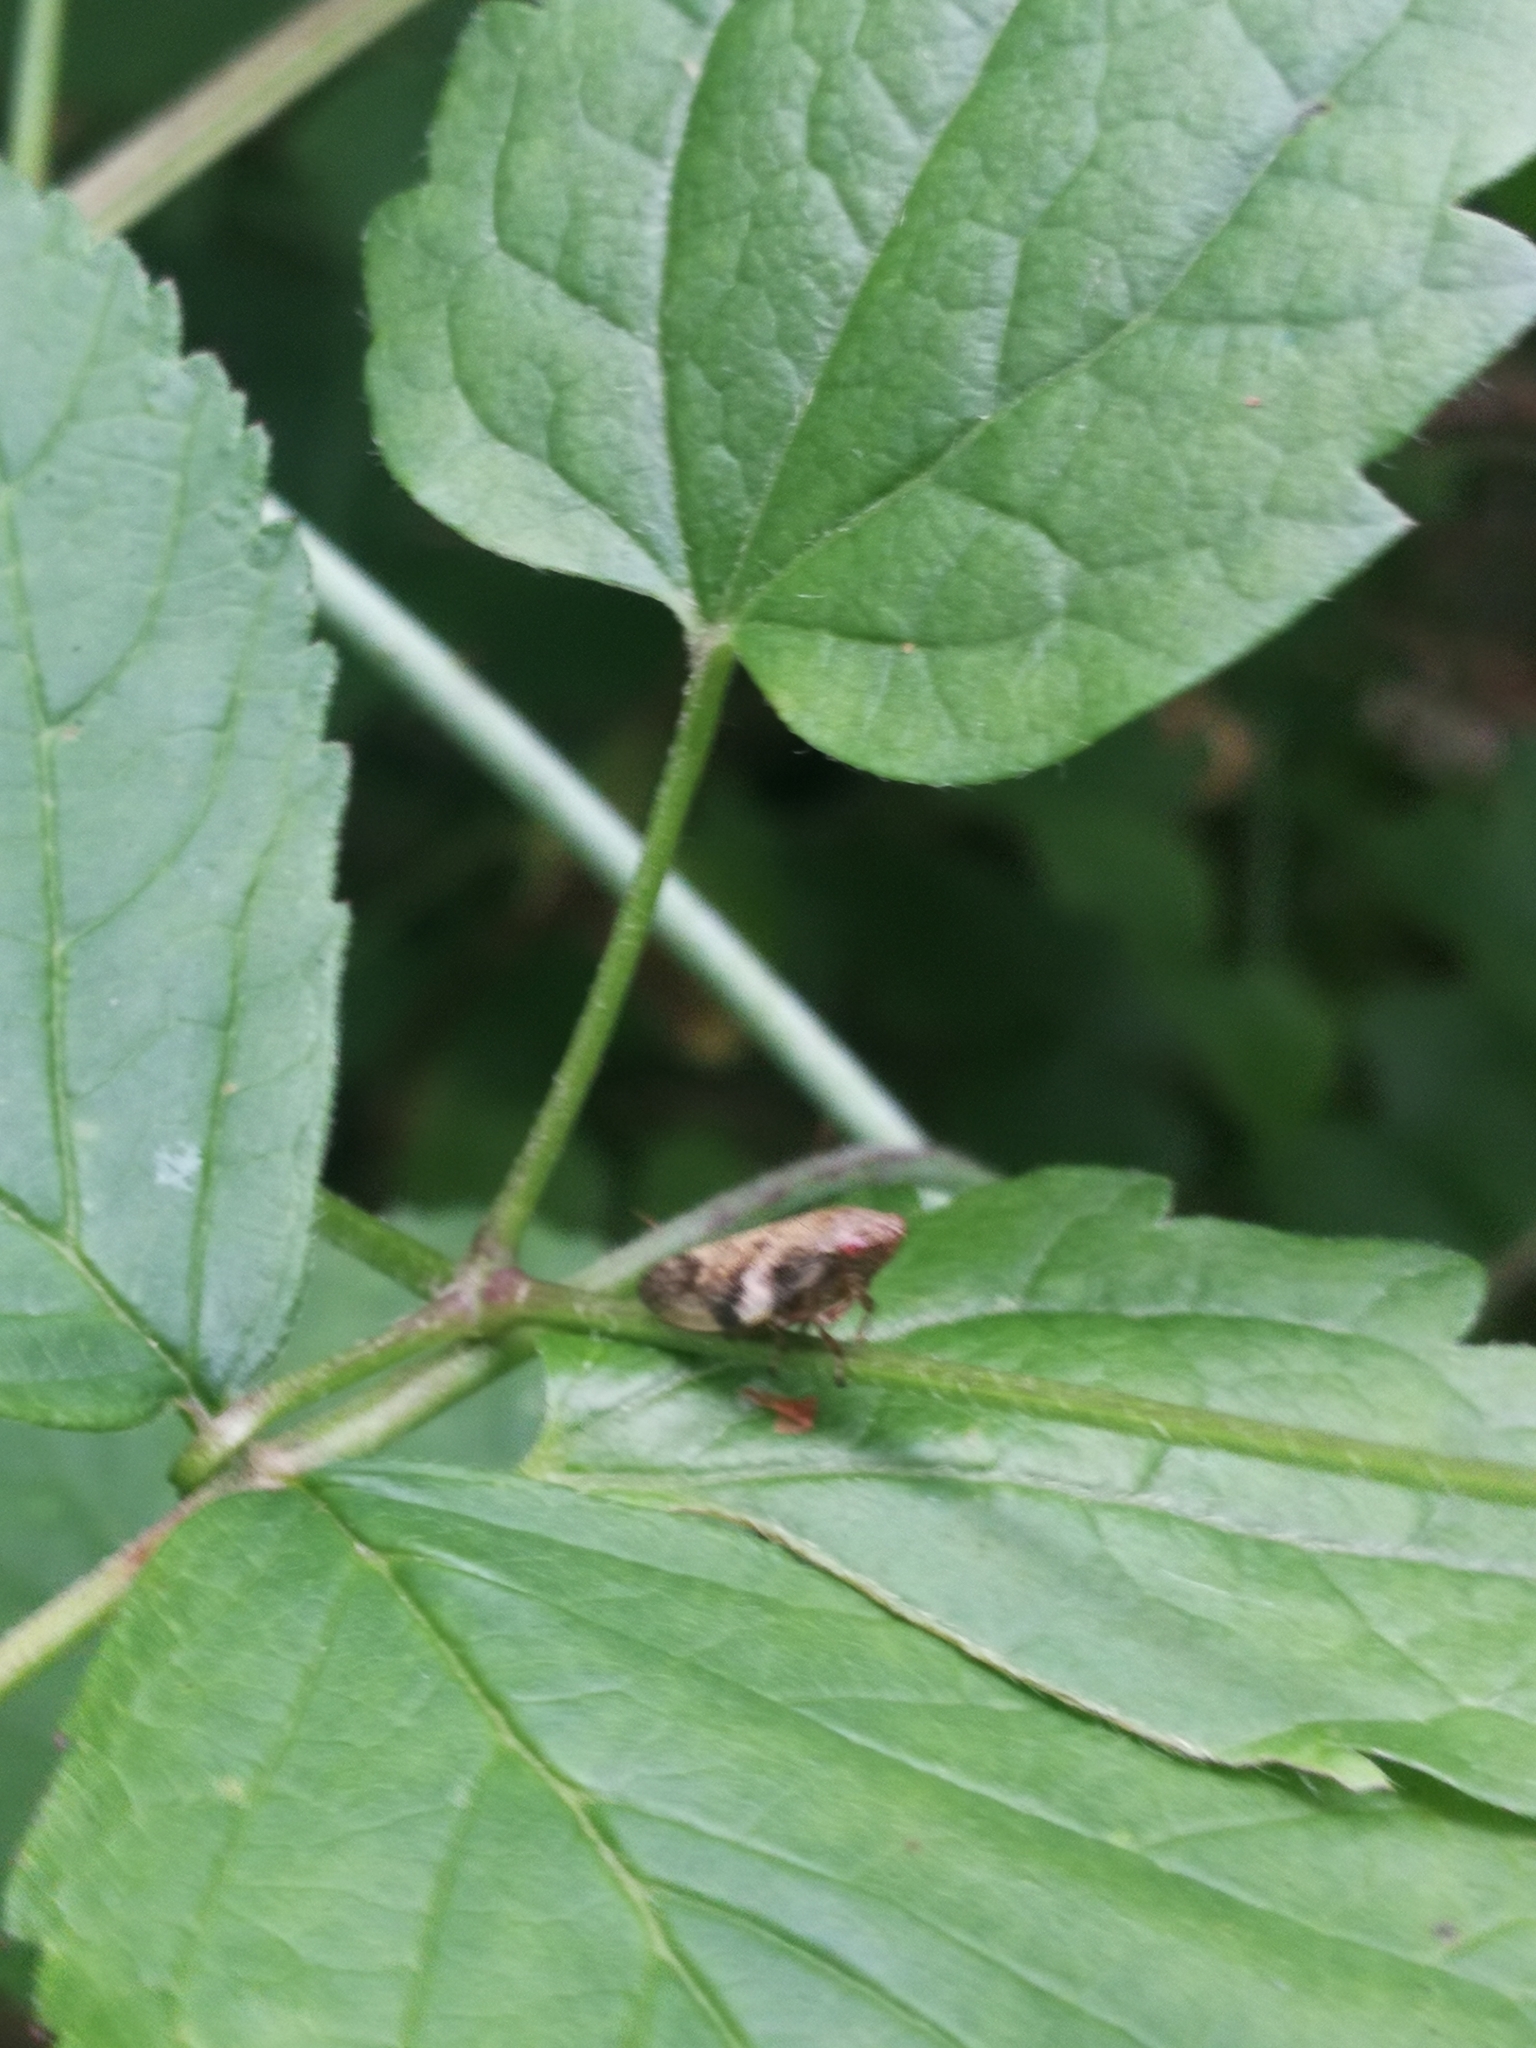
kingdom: Animalia
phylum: Arthropoda
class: Insecta
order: Hemiptera
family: Aphrophoridae
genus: Aphrophora
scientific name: Aphrophora alni
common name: European alder spittlebug
